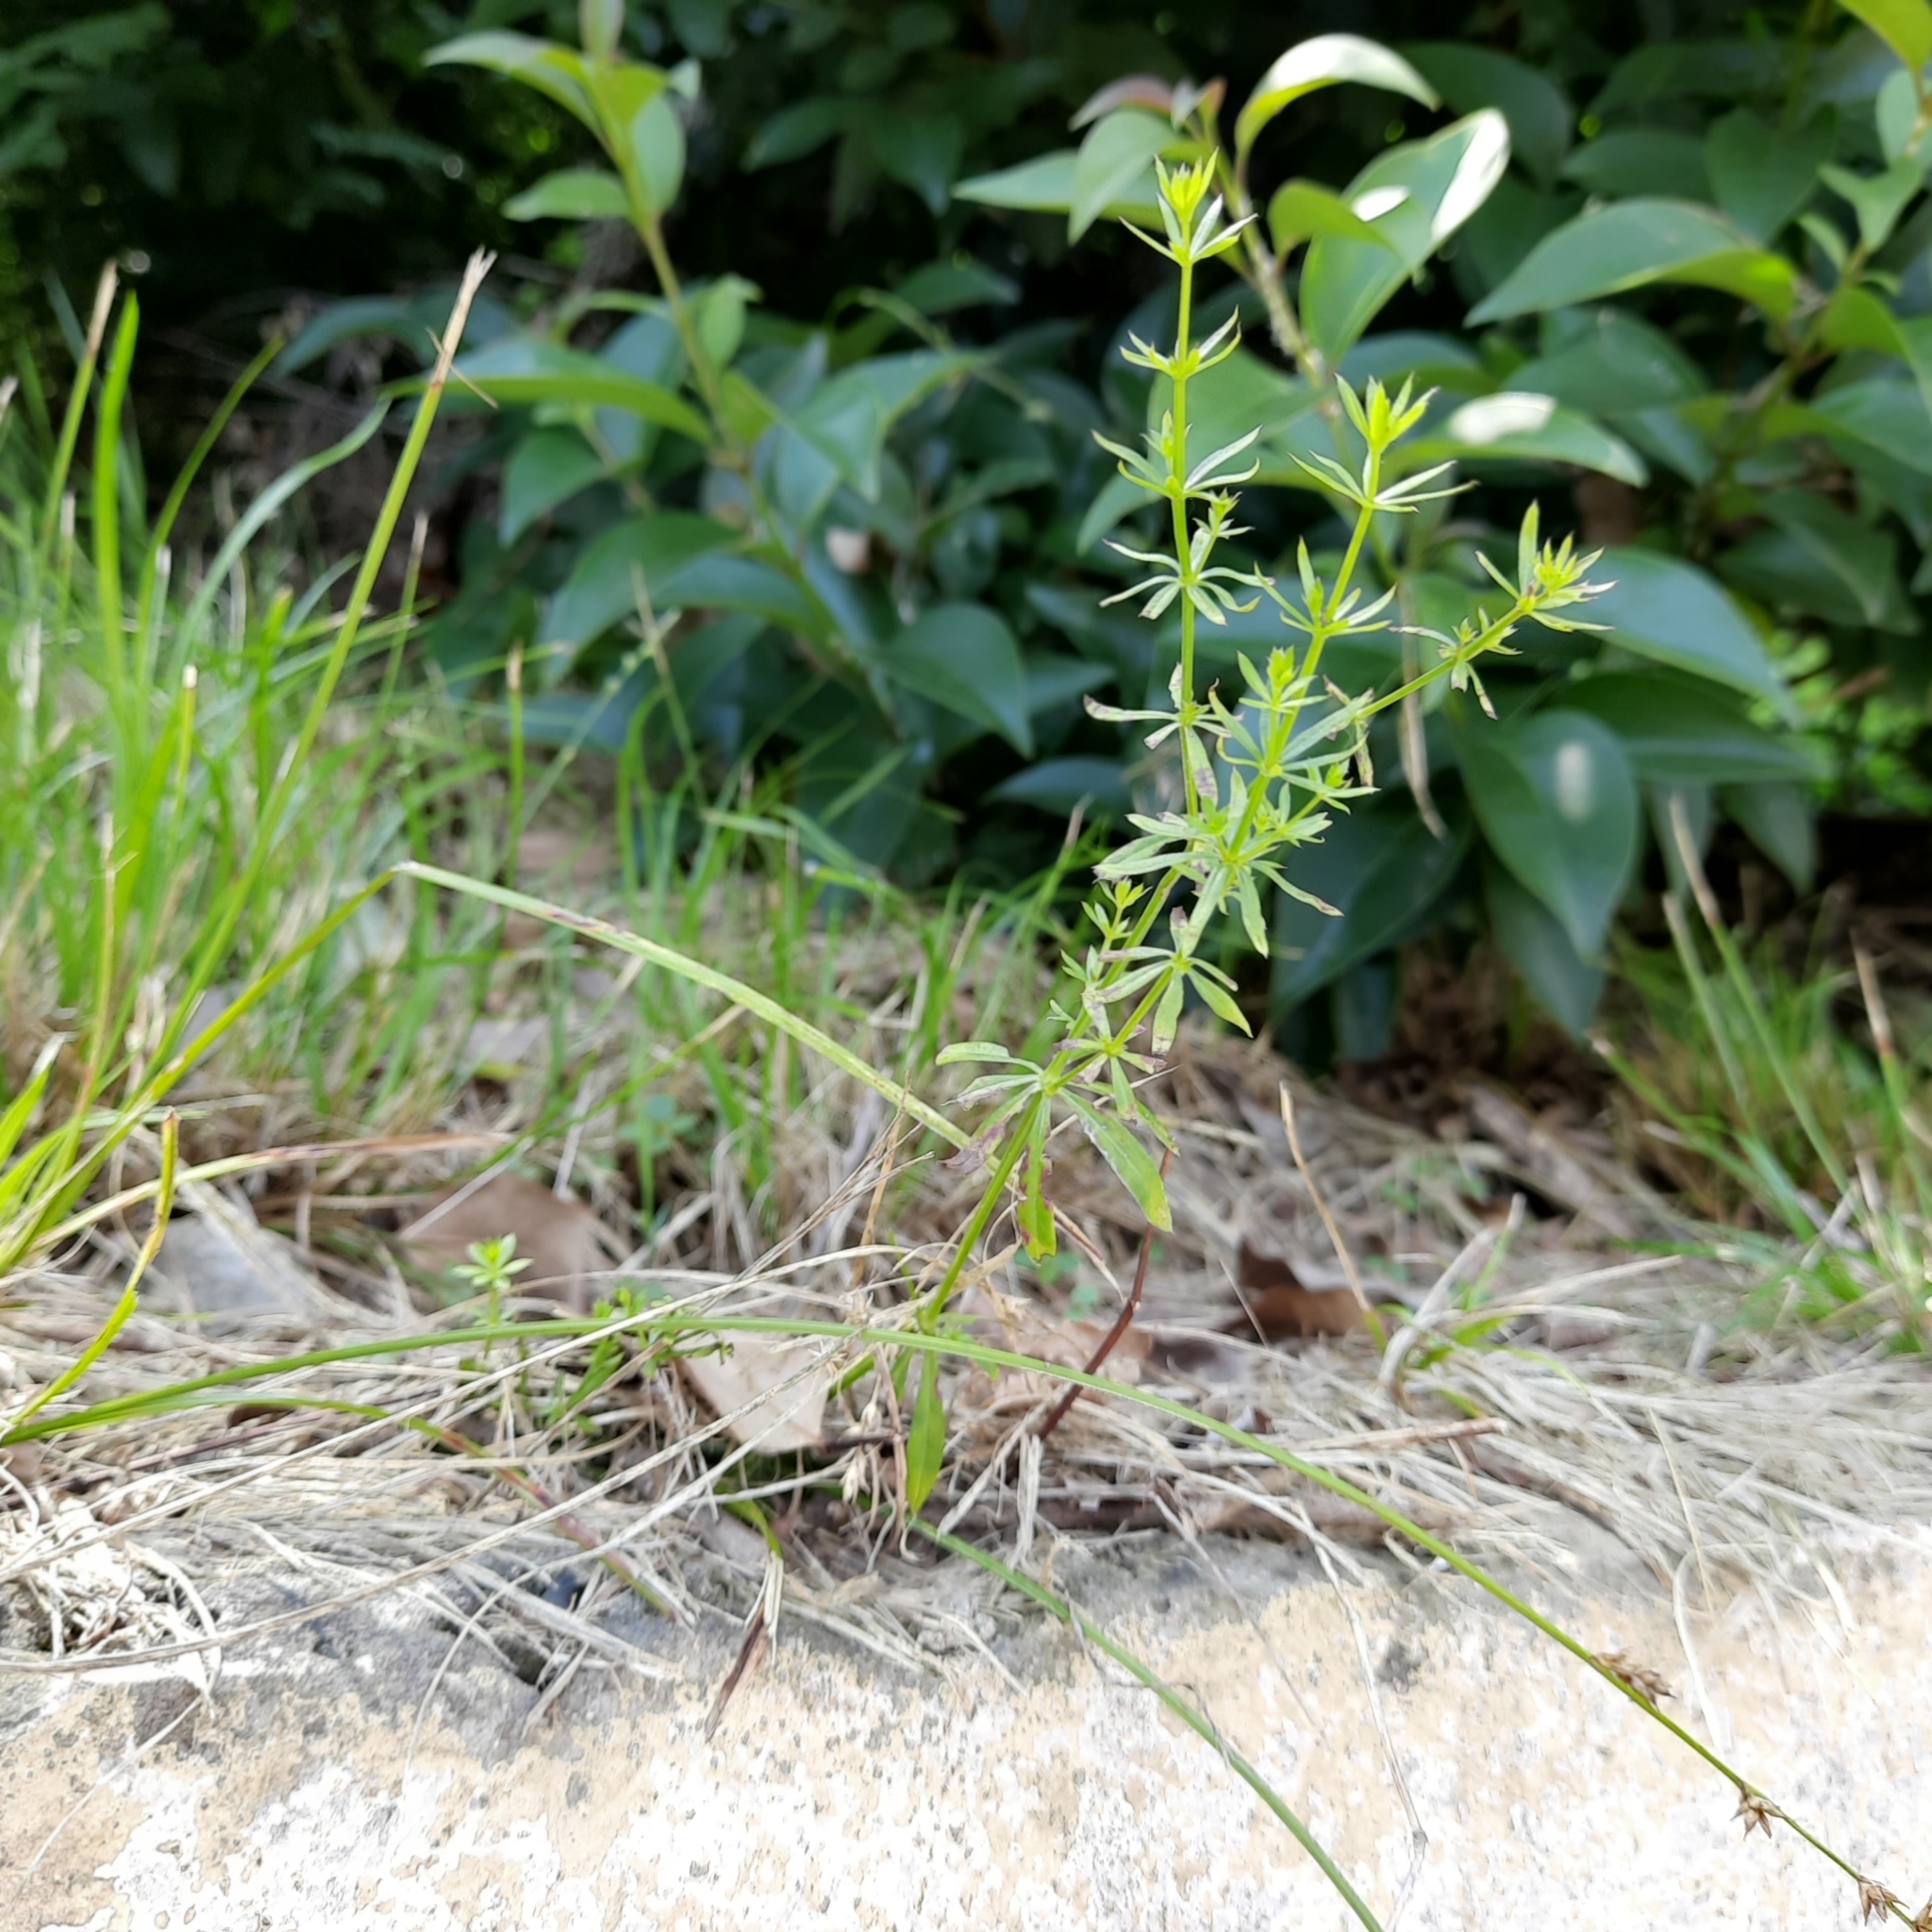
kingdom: Plantae
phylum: Tracheophyta
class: Magnoliopsida
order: Gentianales
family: Rubiaceae
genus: Galium
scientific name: Galium mollugo
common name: Hedge bedstraw
